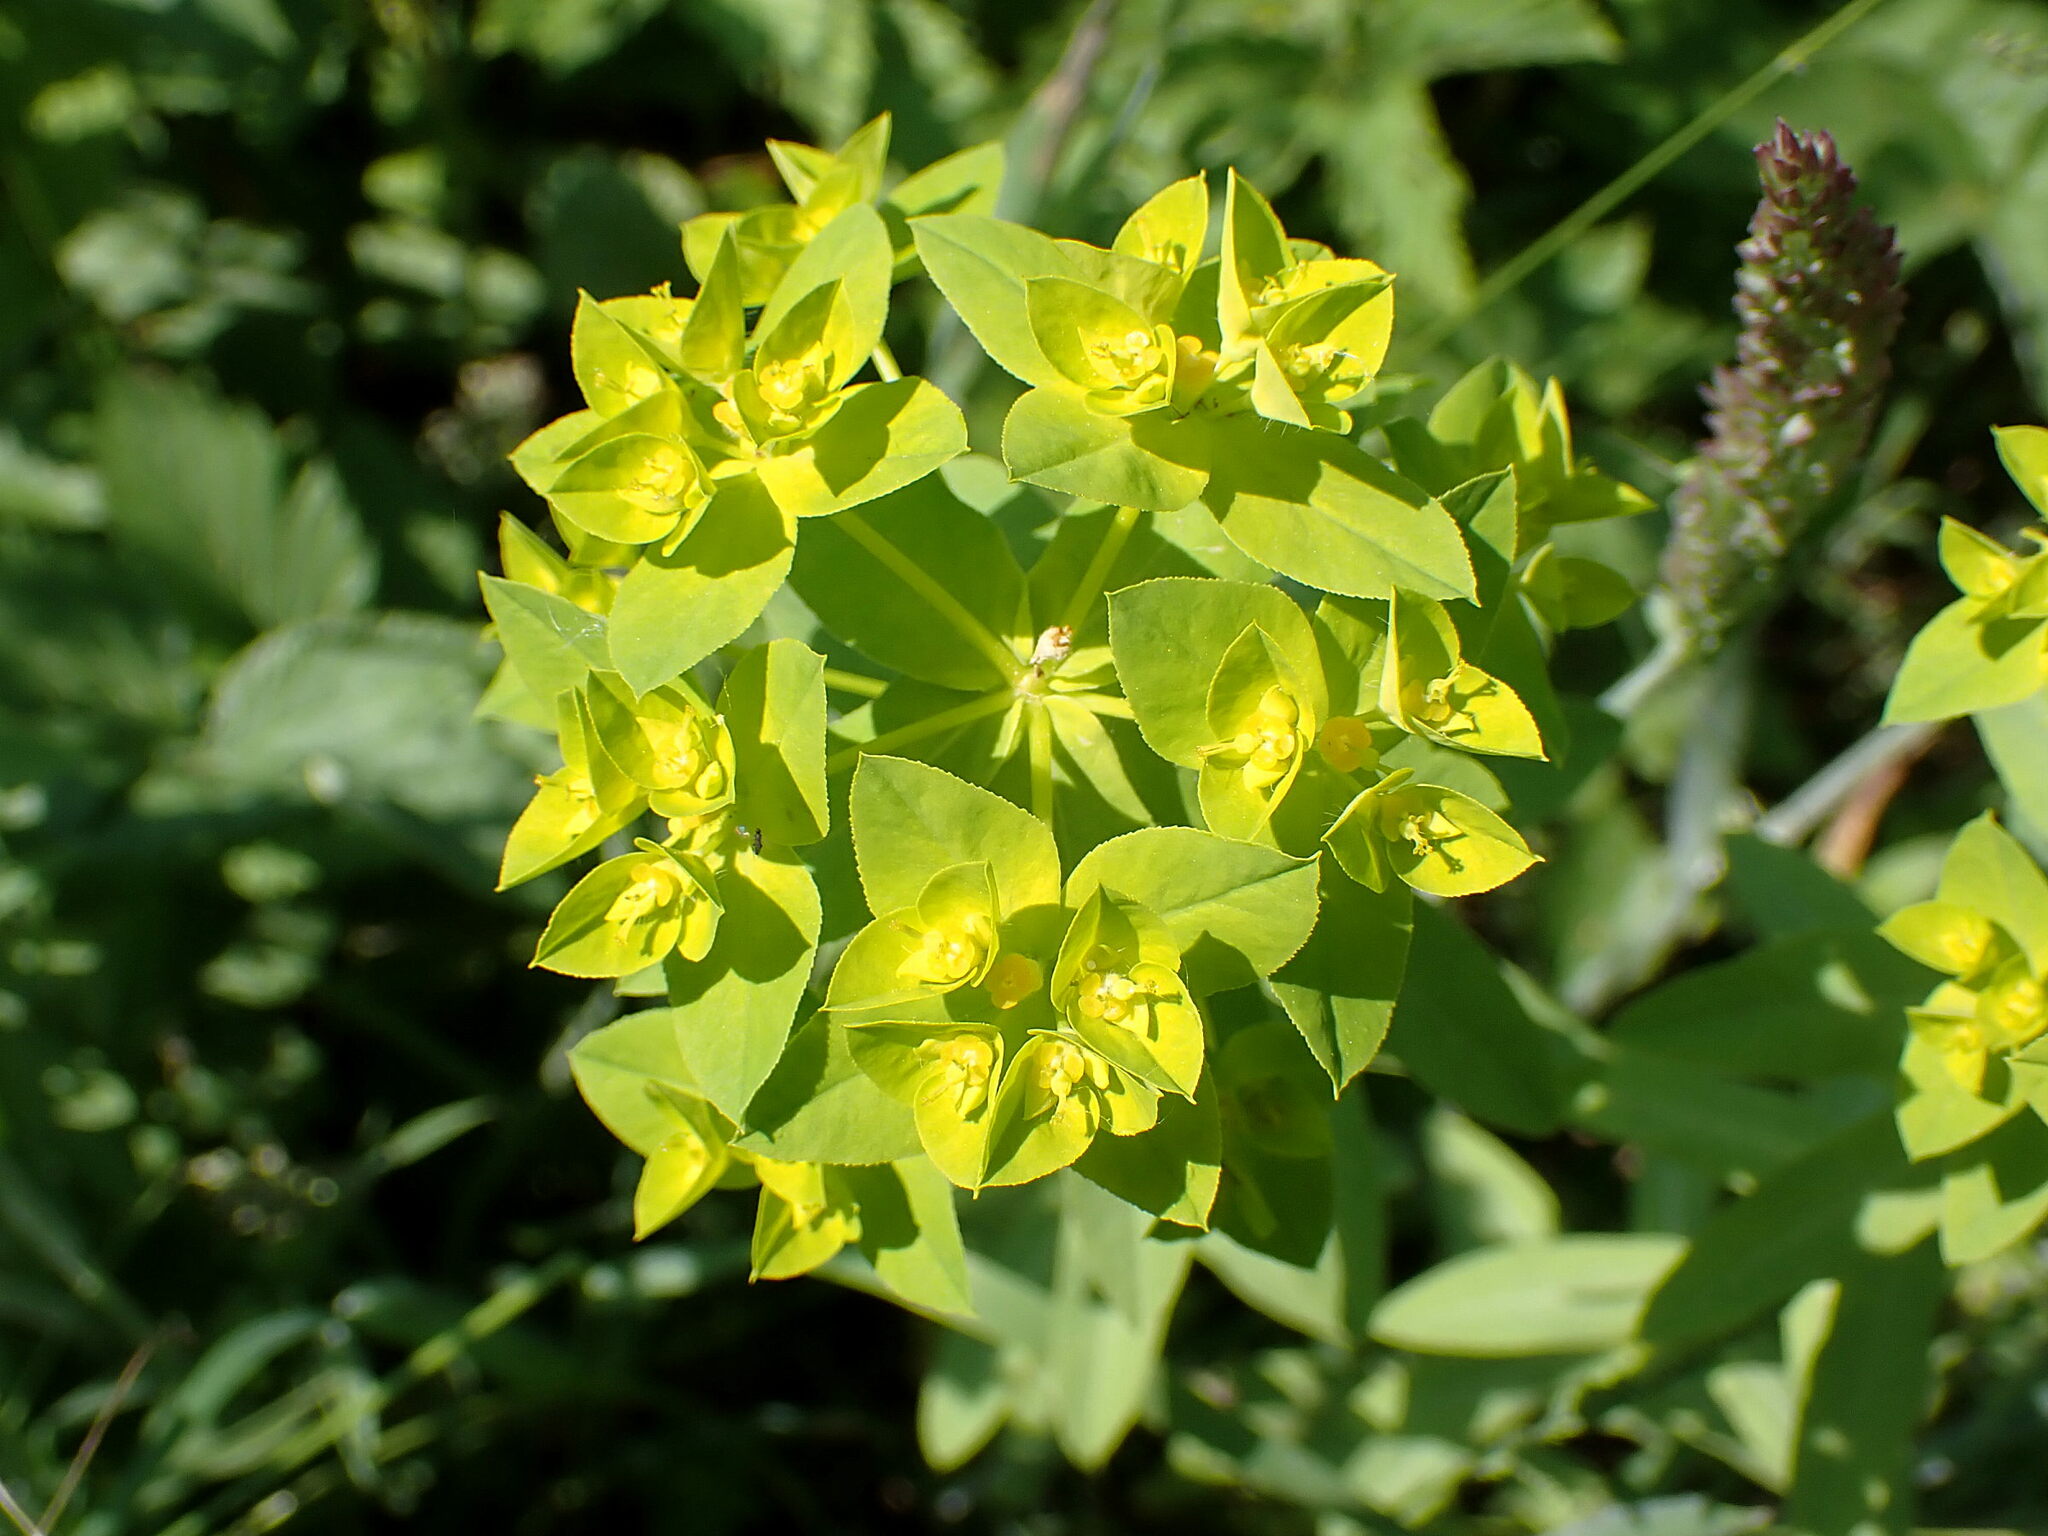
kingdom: Plantae
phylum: Tracheophyta
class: Magnoliopsida
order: Malpighiales
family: Euphorbiaceae
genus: Euphorbia
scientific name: Euphorbia platyphyllos
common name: Broad-leaved spurge
